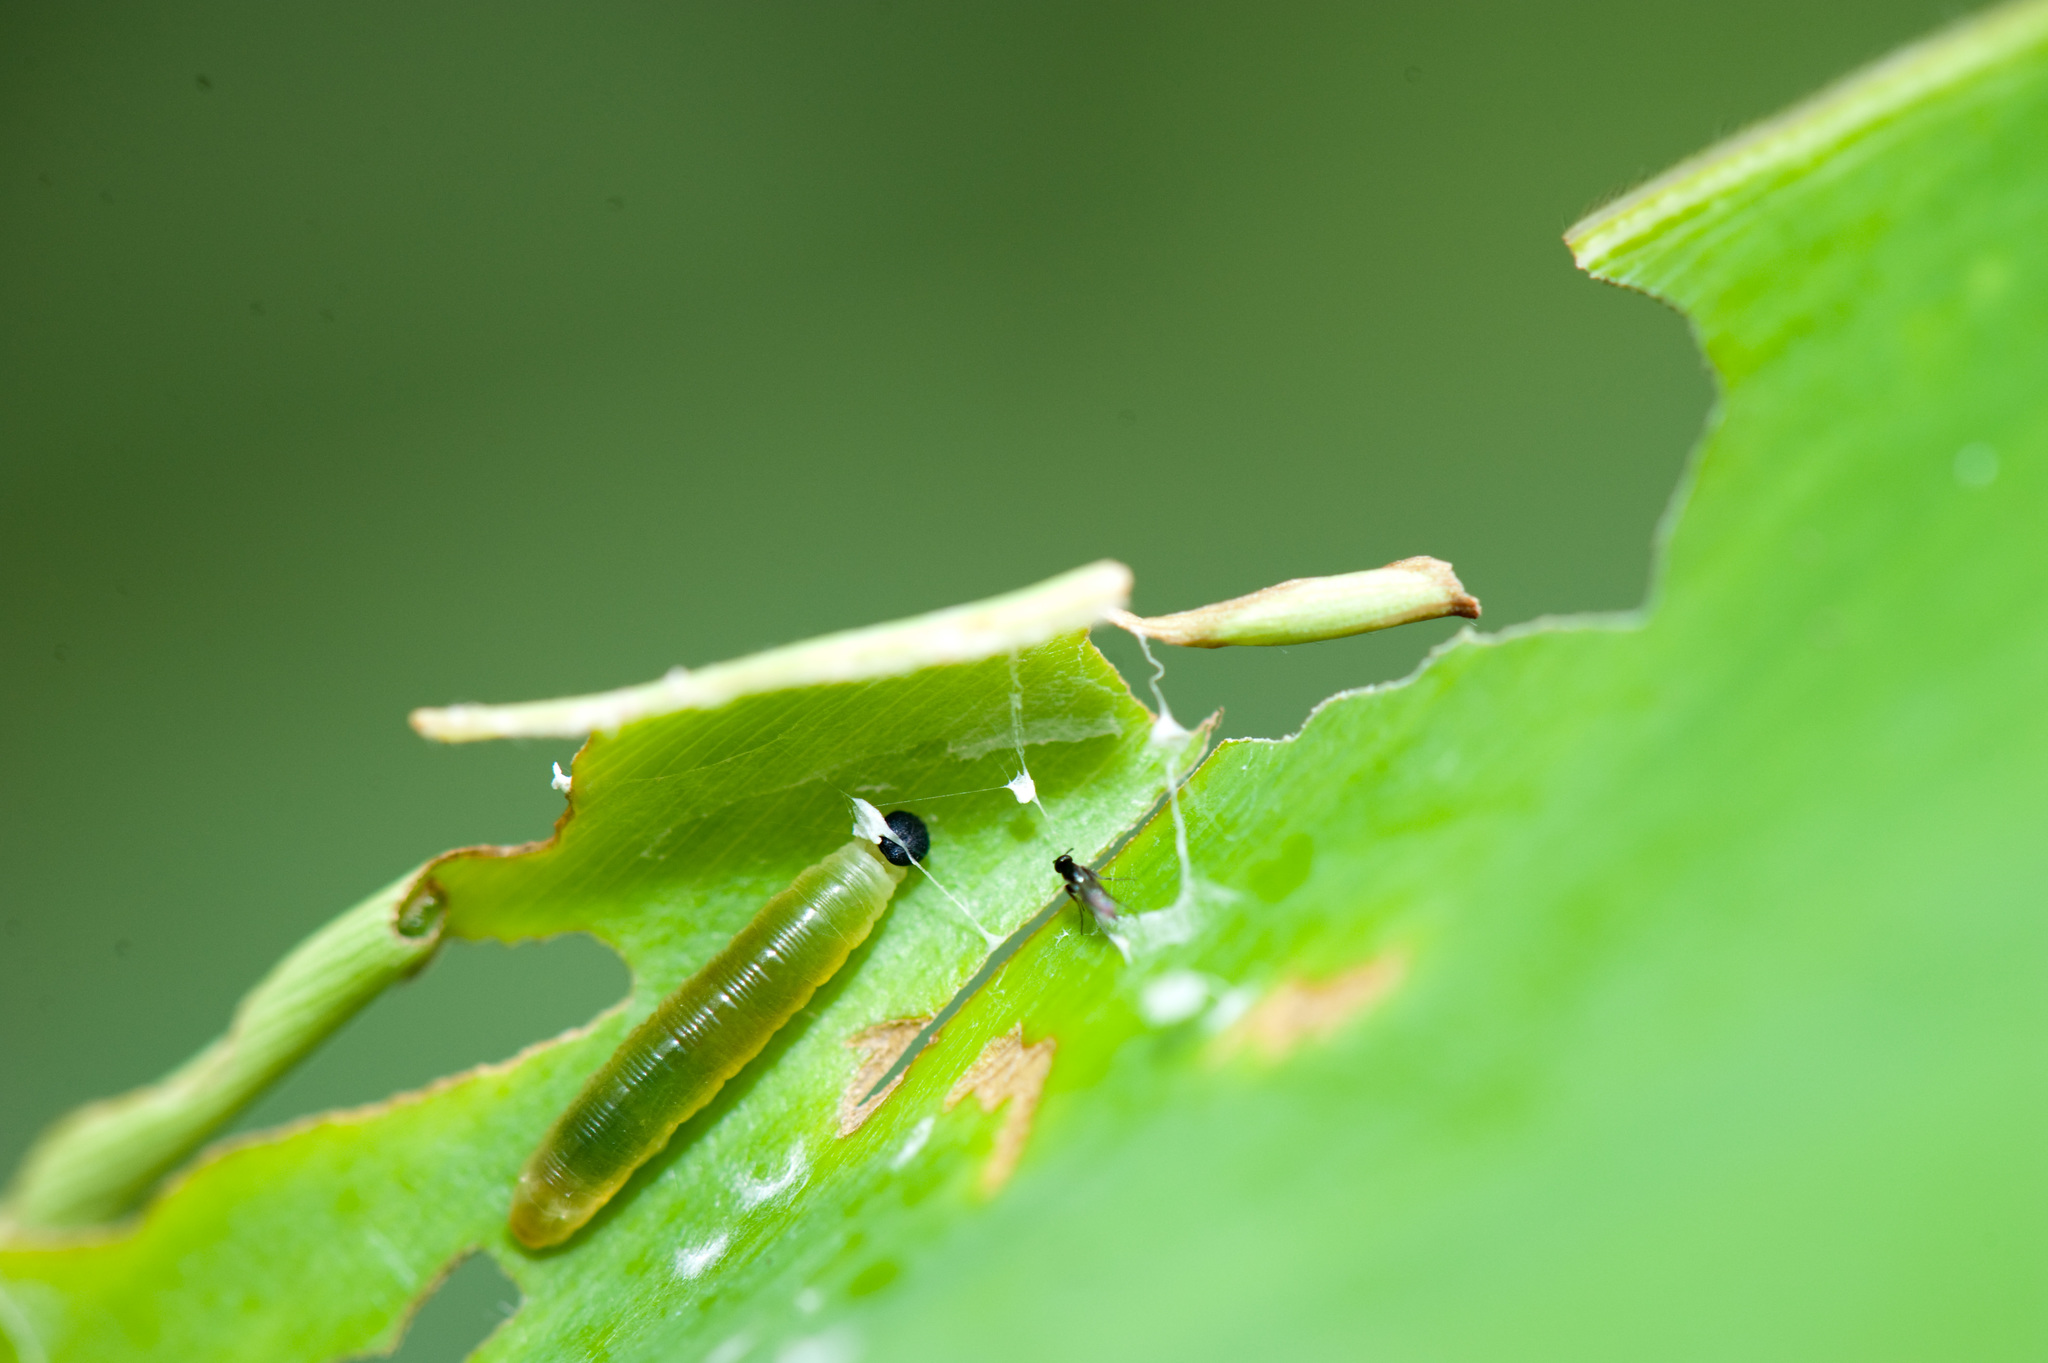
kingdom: Animalia
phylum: Arthropoda
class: Insecta
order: Lepidoptera
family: Hesperiidae
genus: Udaspes
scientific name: Udaspes folus
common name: Grass demon
